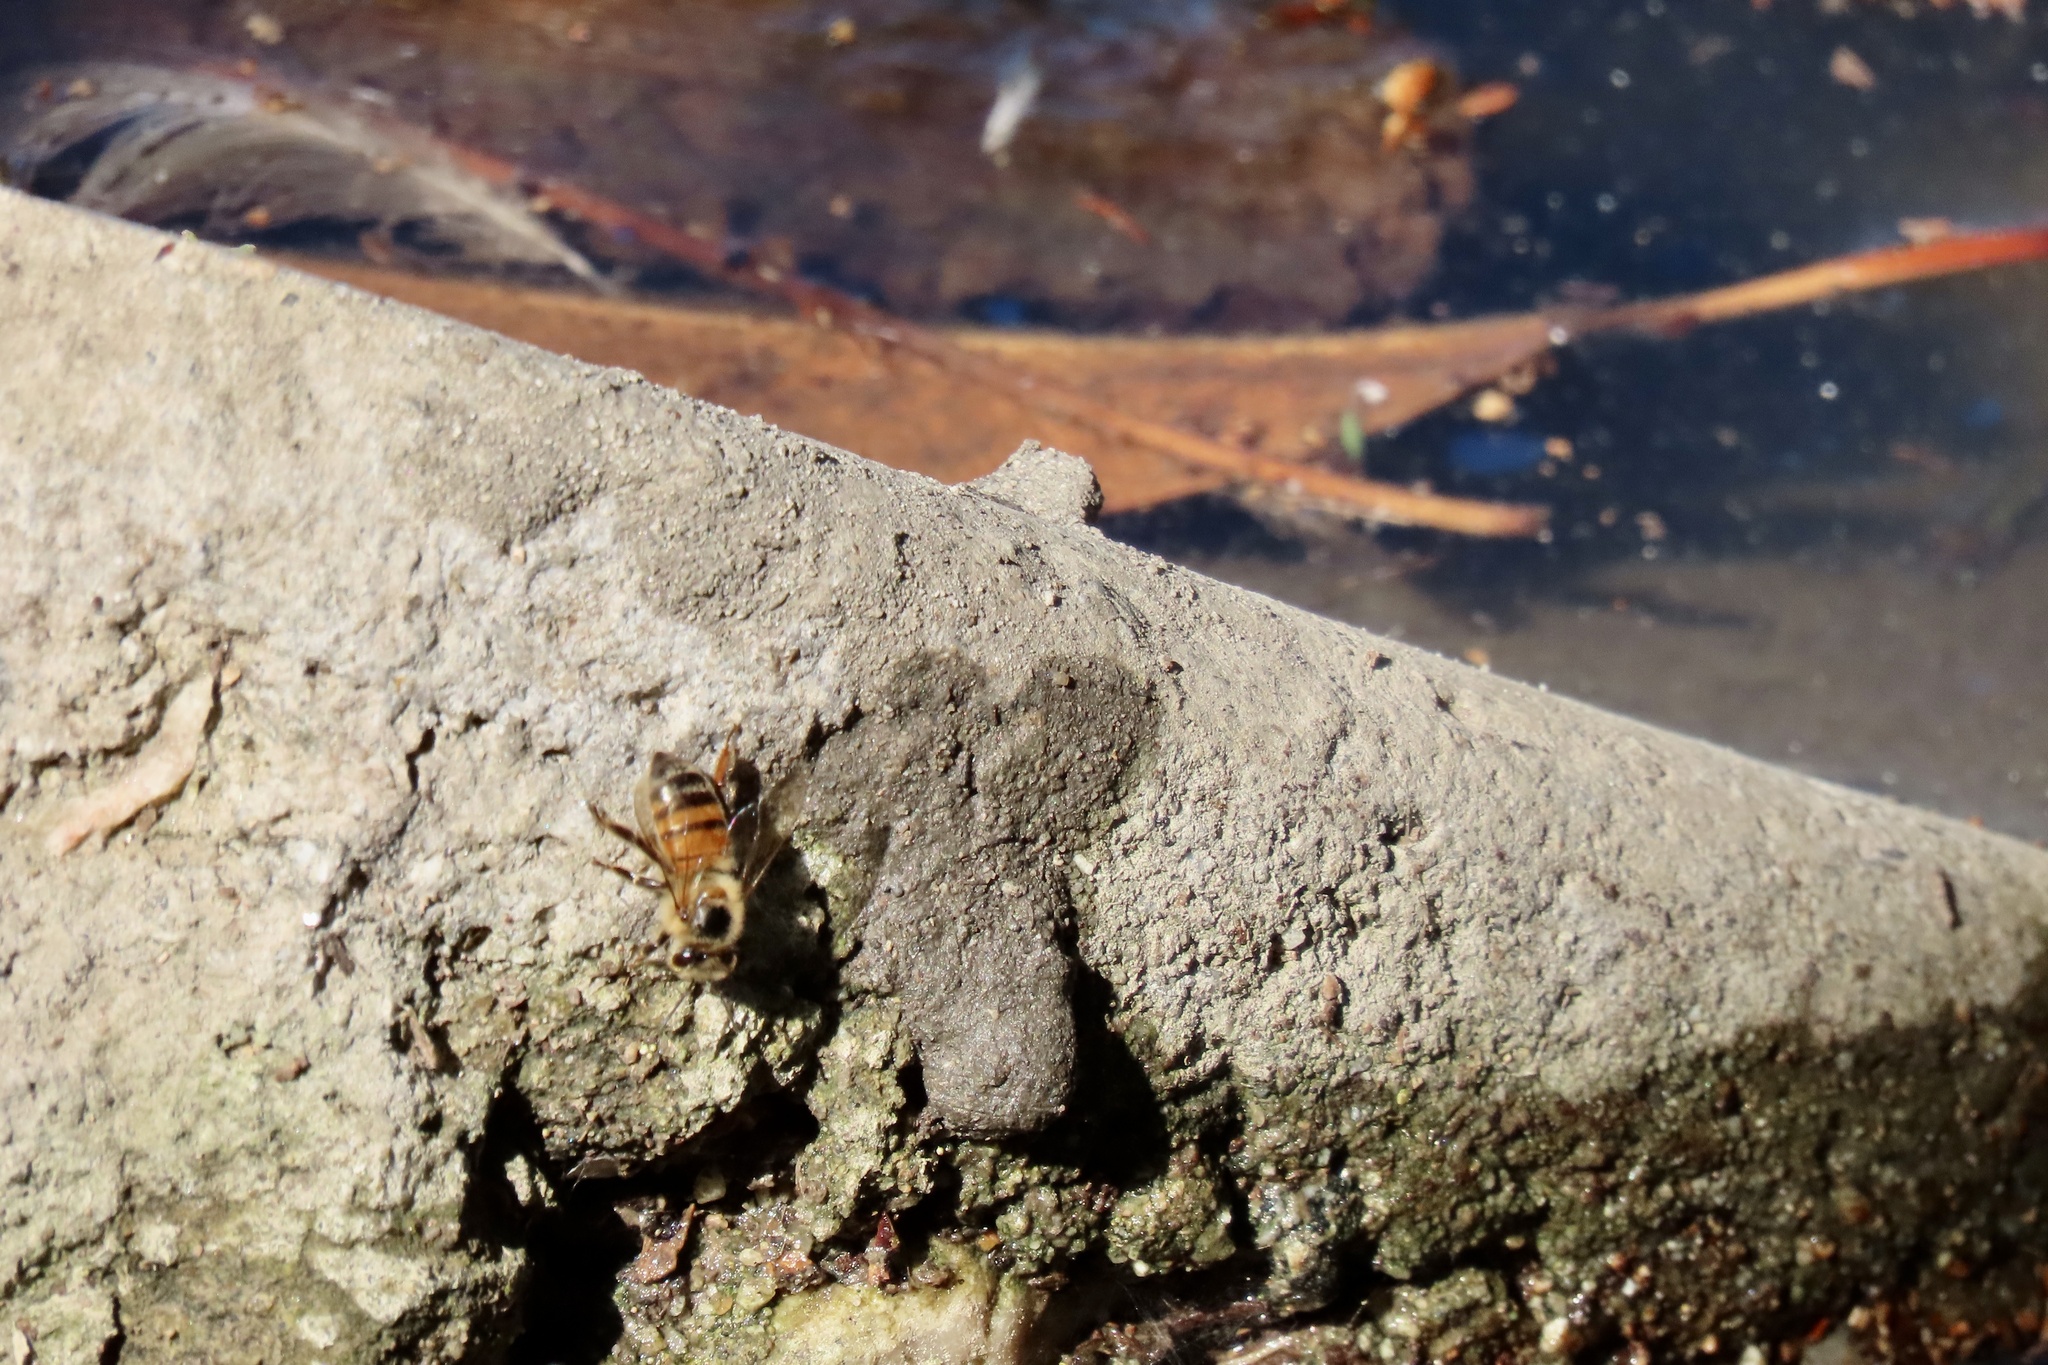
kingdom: Animalia
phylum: Arthropoda
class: Insecta
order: Hymenoptera
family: Apidae
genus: Apis
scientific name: Apis mellifera
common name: Honey bee
